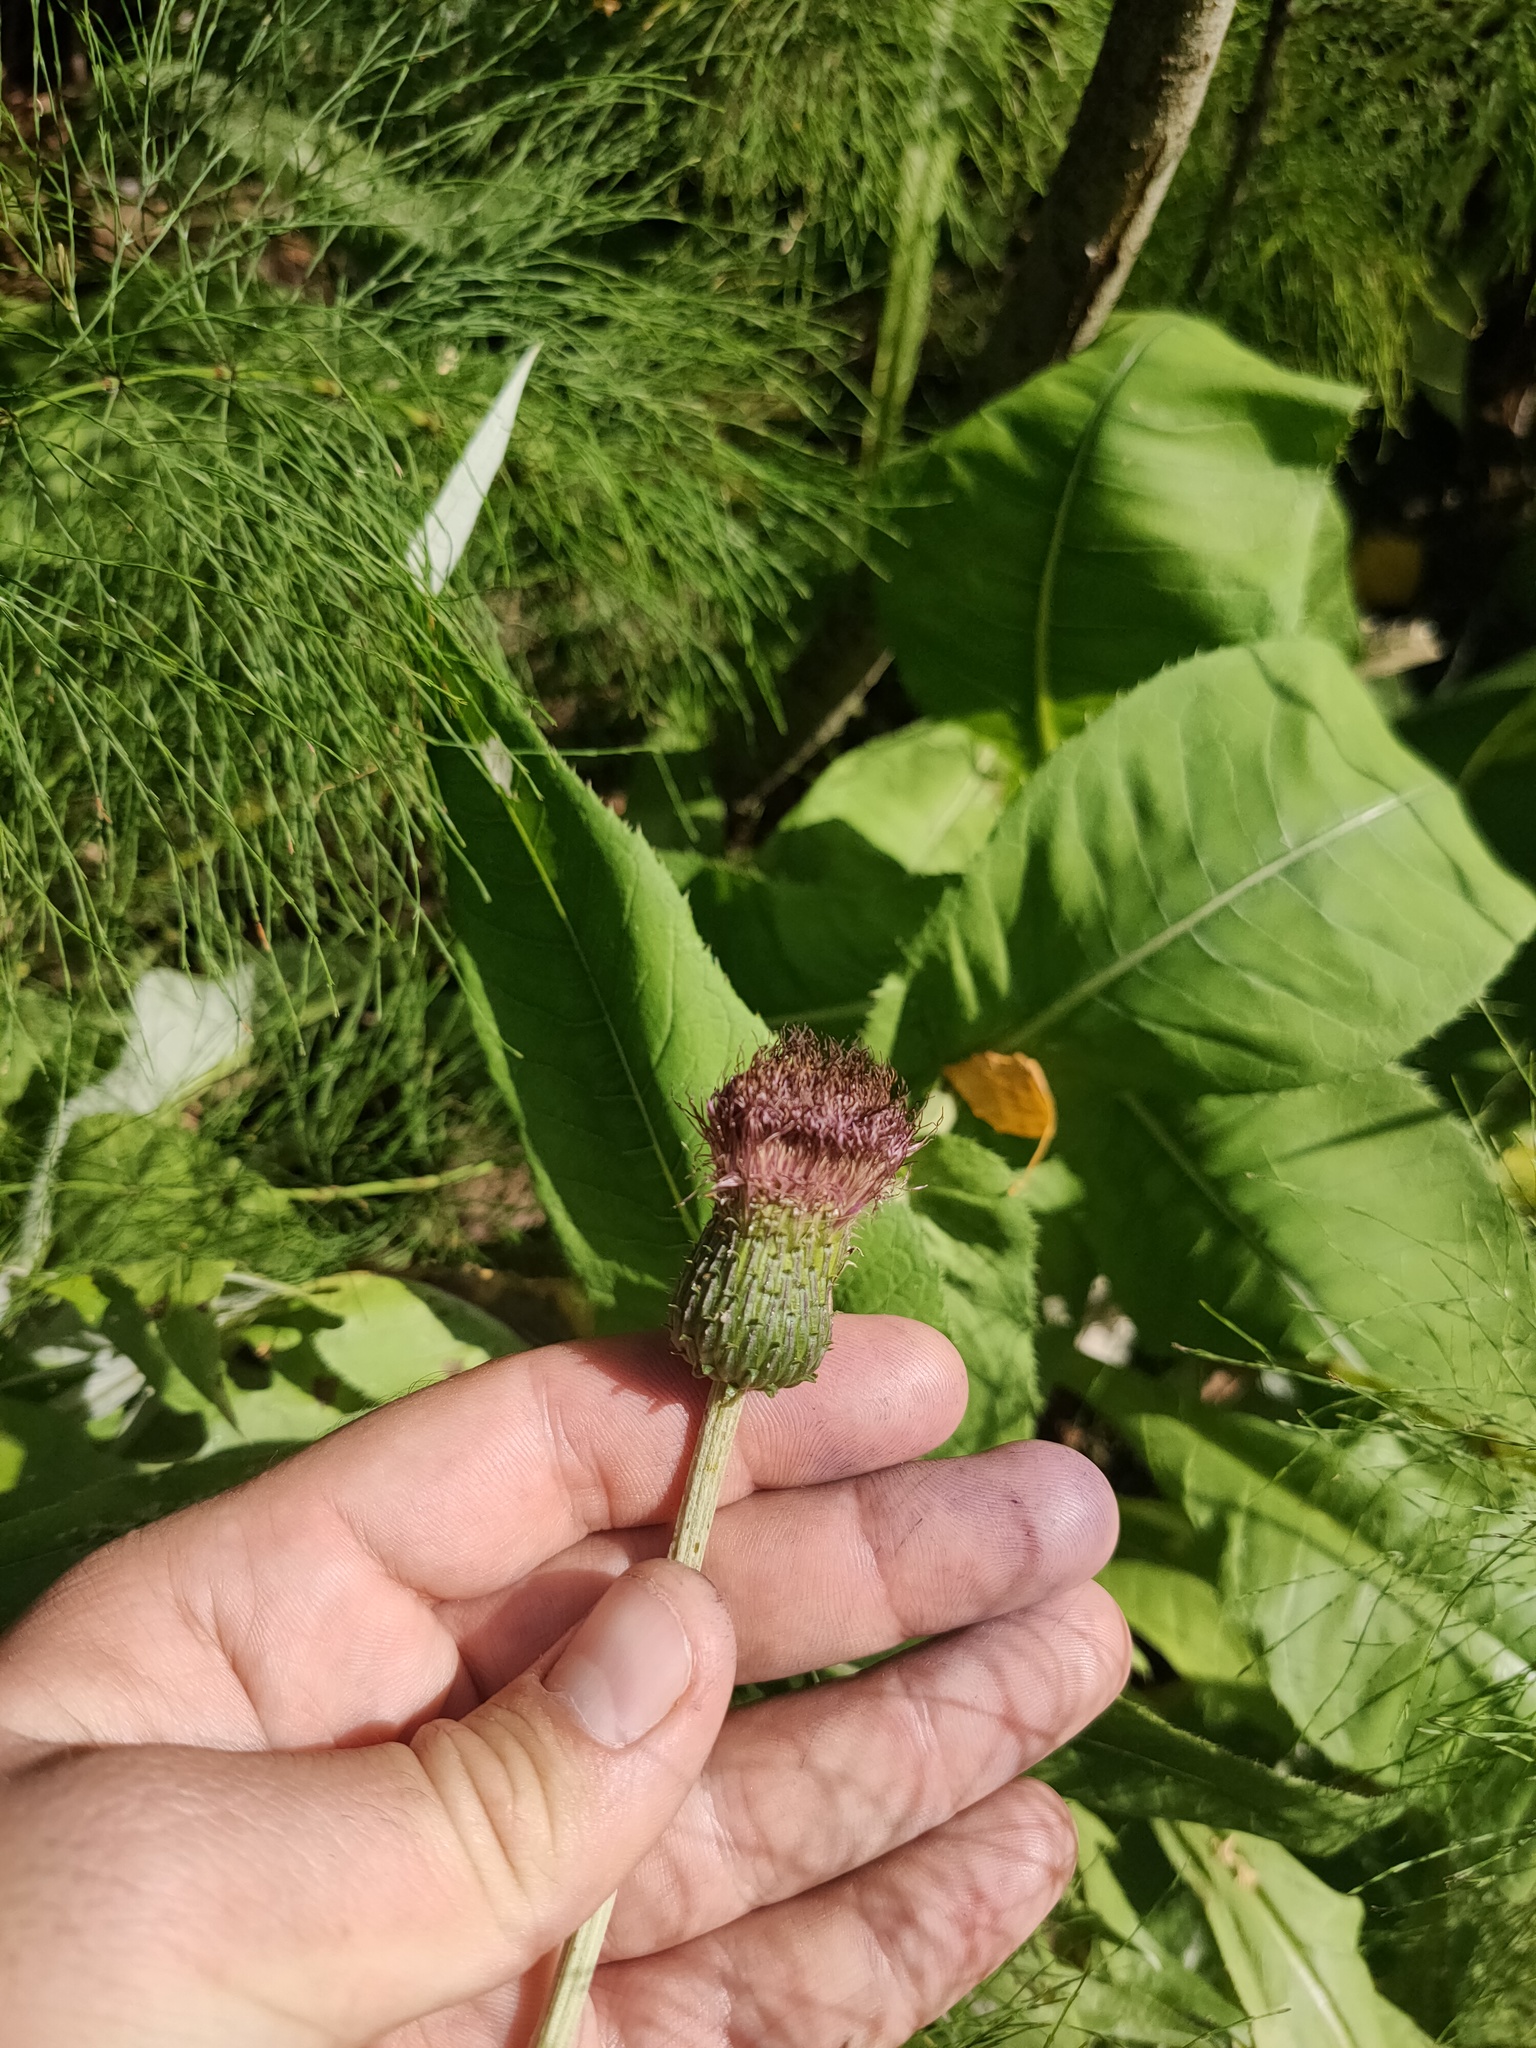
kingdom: Plantae
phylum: Tracheophyta
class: Magnoliopsida
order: Asterales
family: Asteraceae
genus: Cirsium
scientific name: Cirsium heterophyllum
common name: Melancholy thistle
